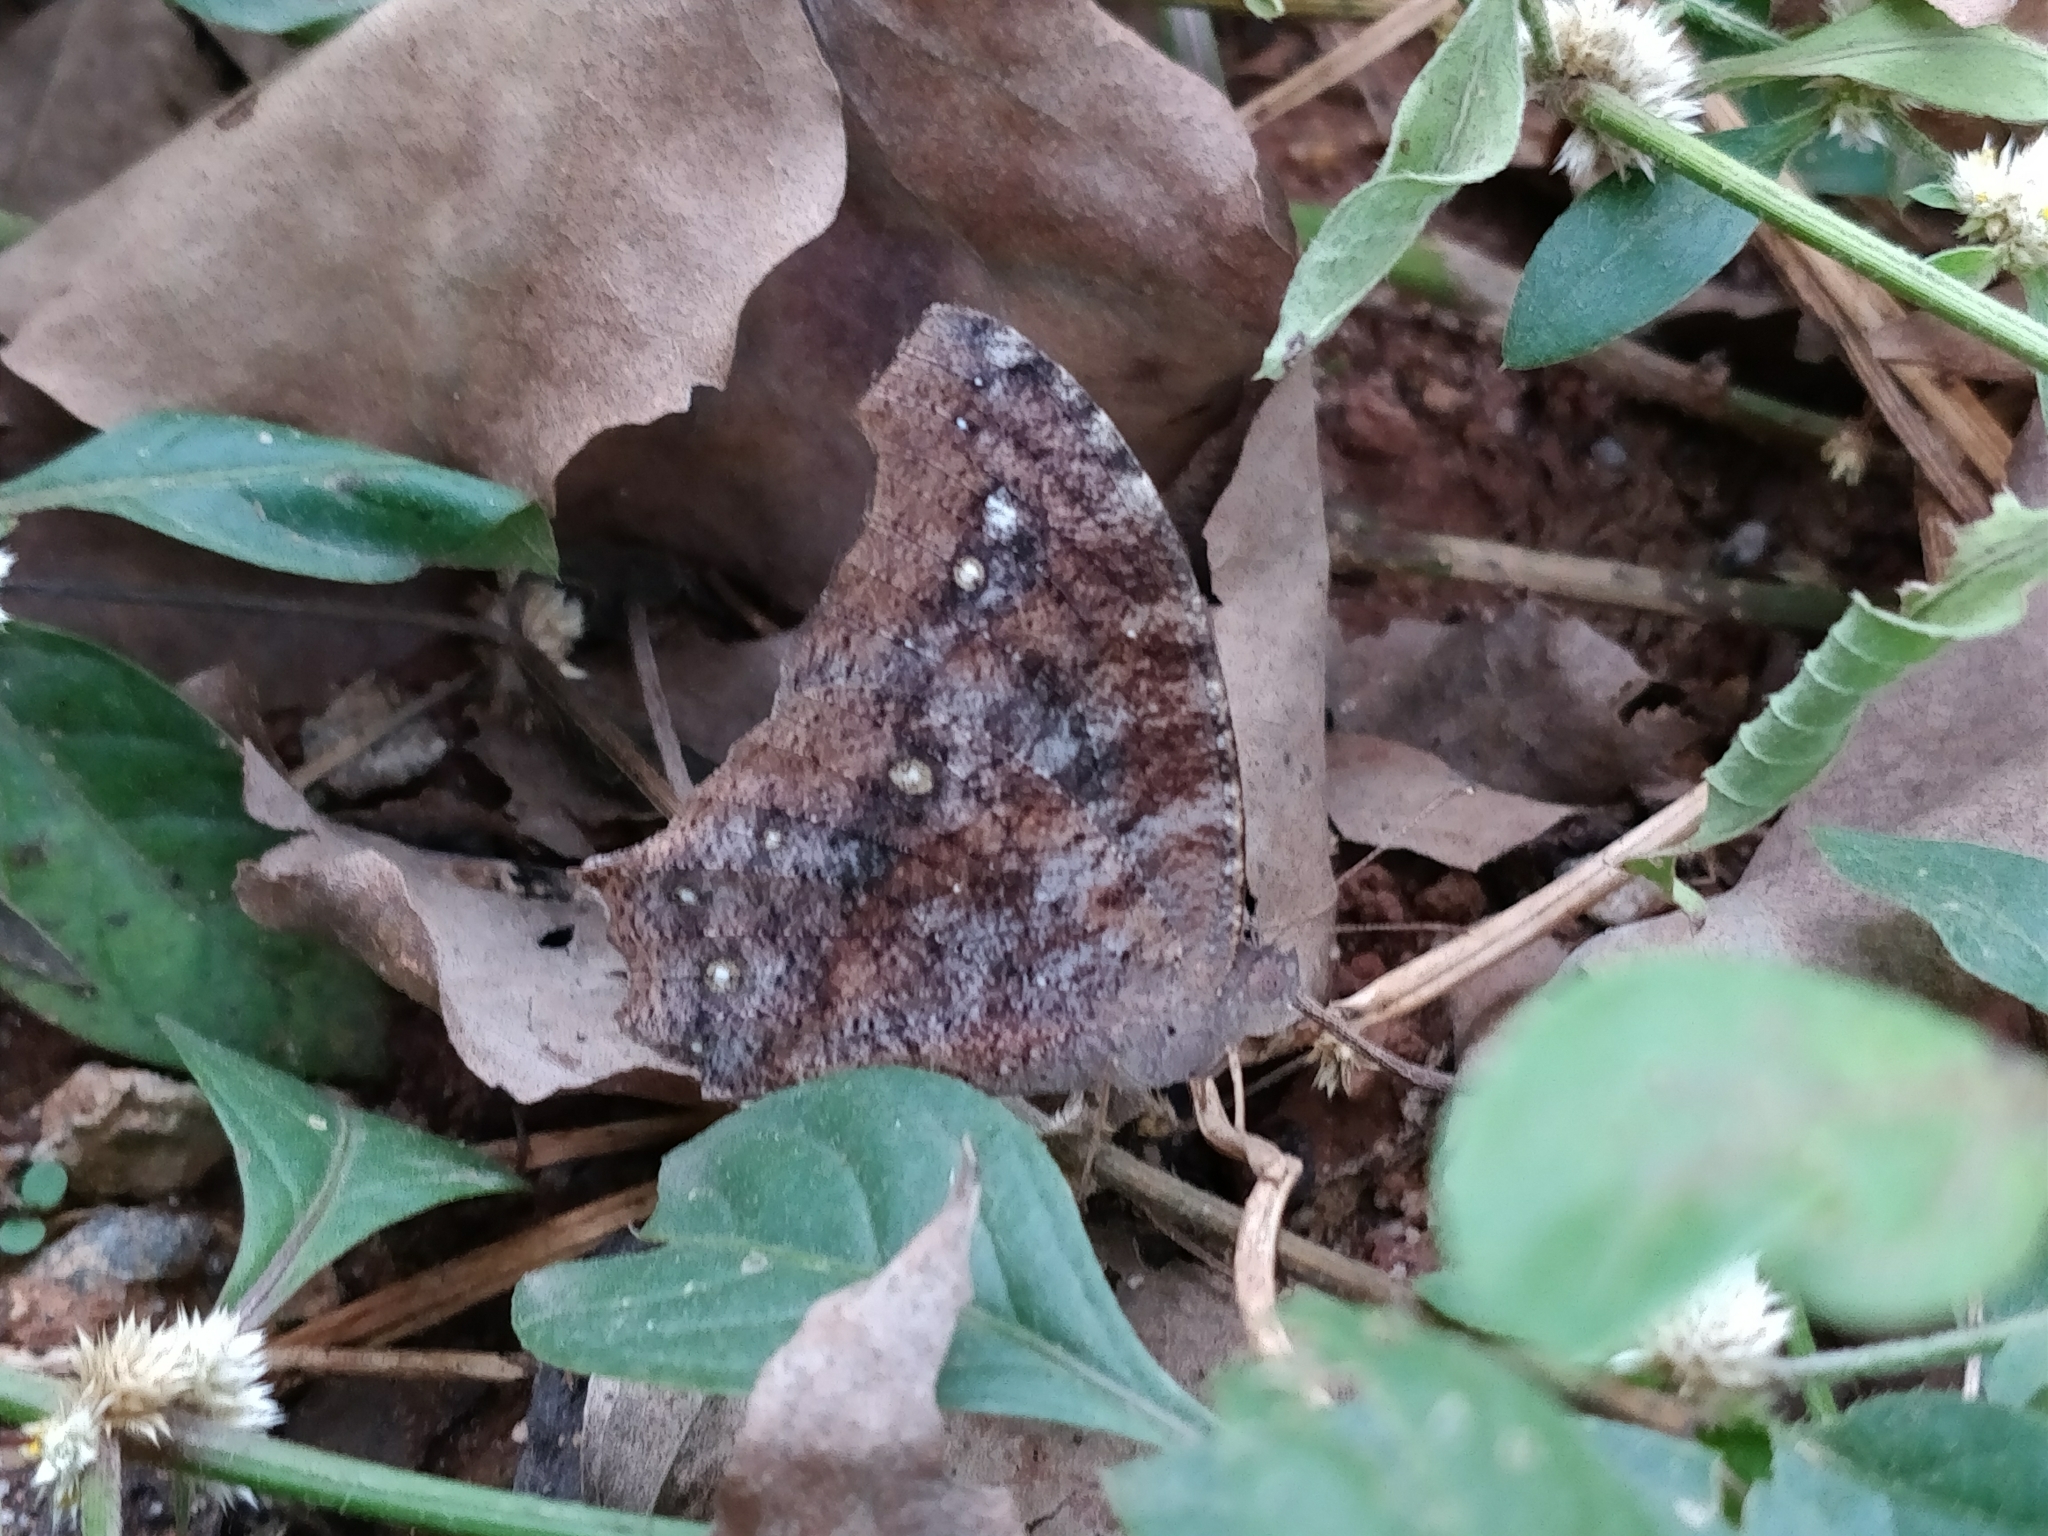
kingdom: Animalia
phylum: Arthropoda
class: Insecta
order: Lepidoptera
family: Nymphalidae
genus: Melanitis
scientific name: Melanitis leda
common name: Twilight brown
